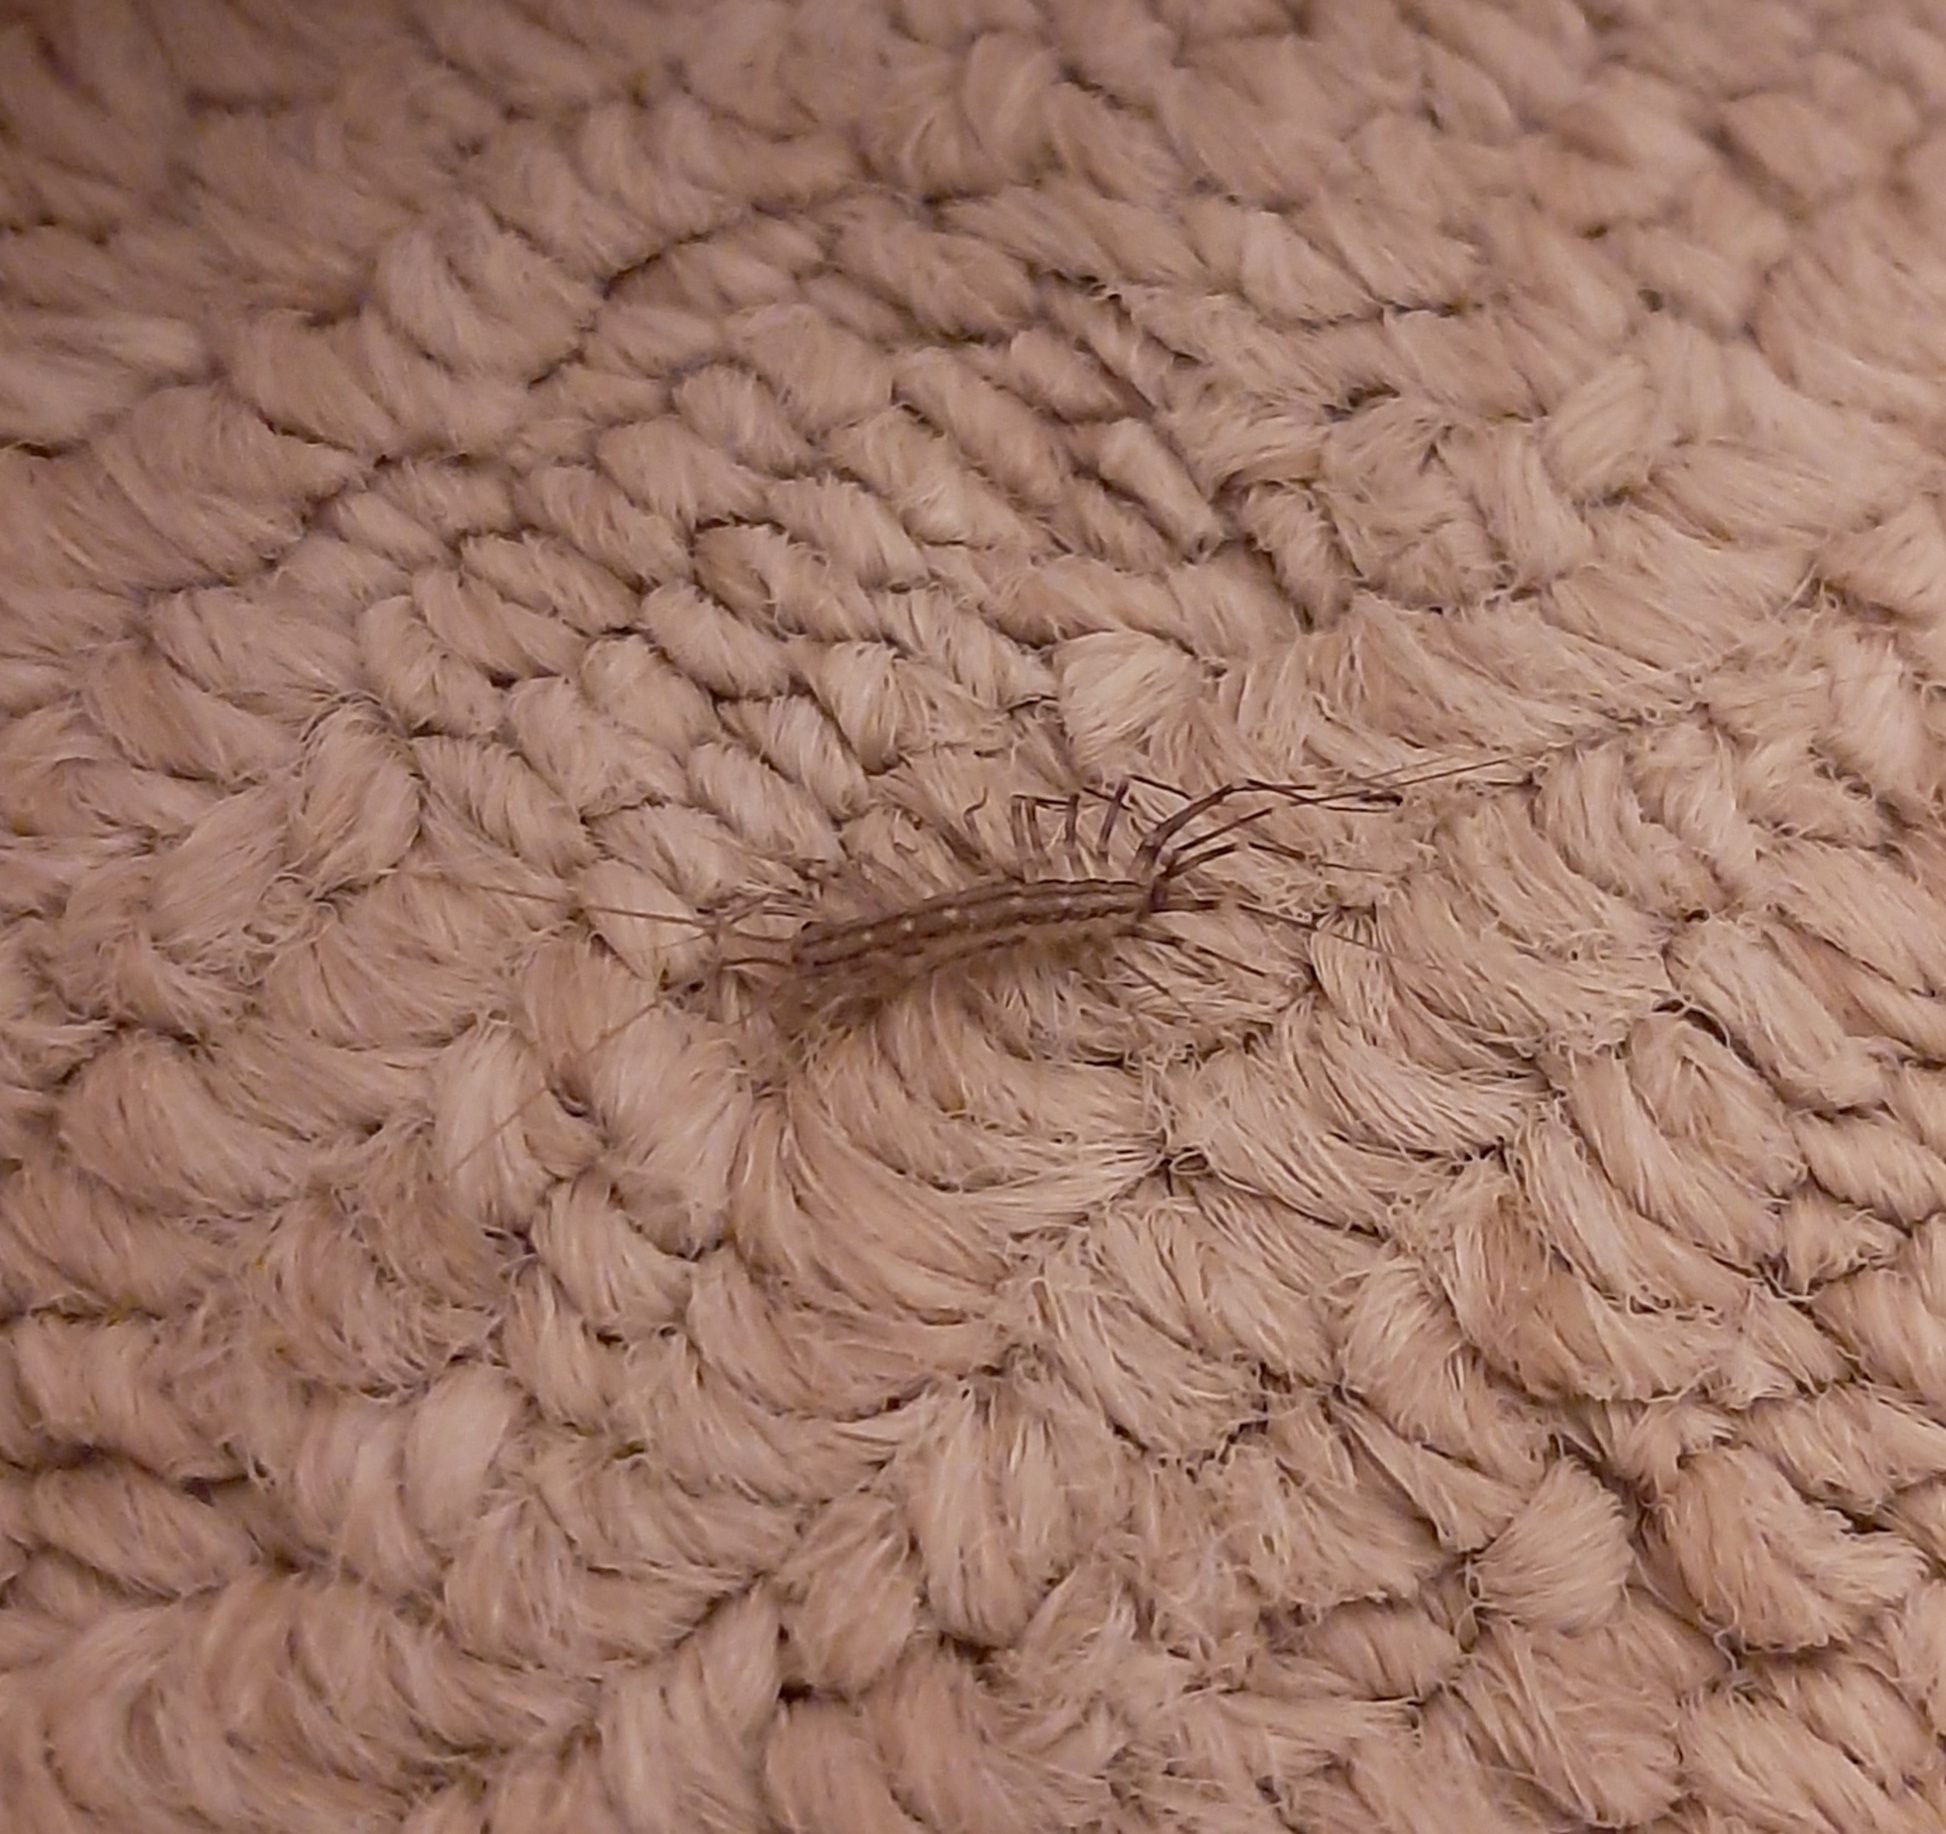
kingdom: Animalia
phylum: Arthropoda
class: Chilopoda
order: Scutigeromorpha
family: Scutigeridae
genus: Scutigera
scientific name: Scutigera coleoptrata
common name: House centipede
